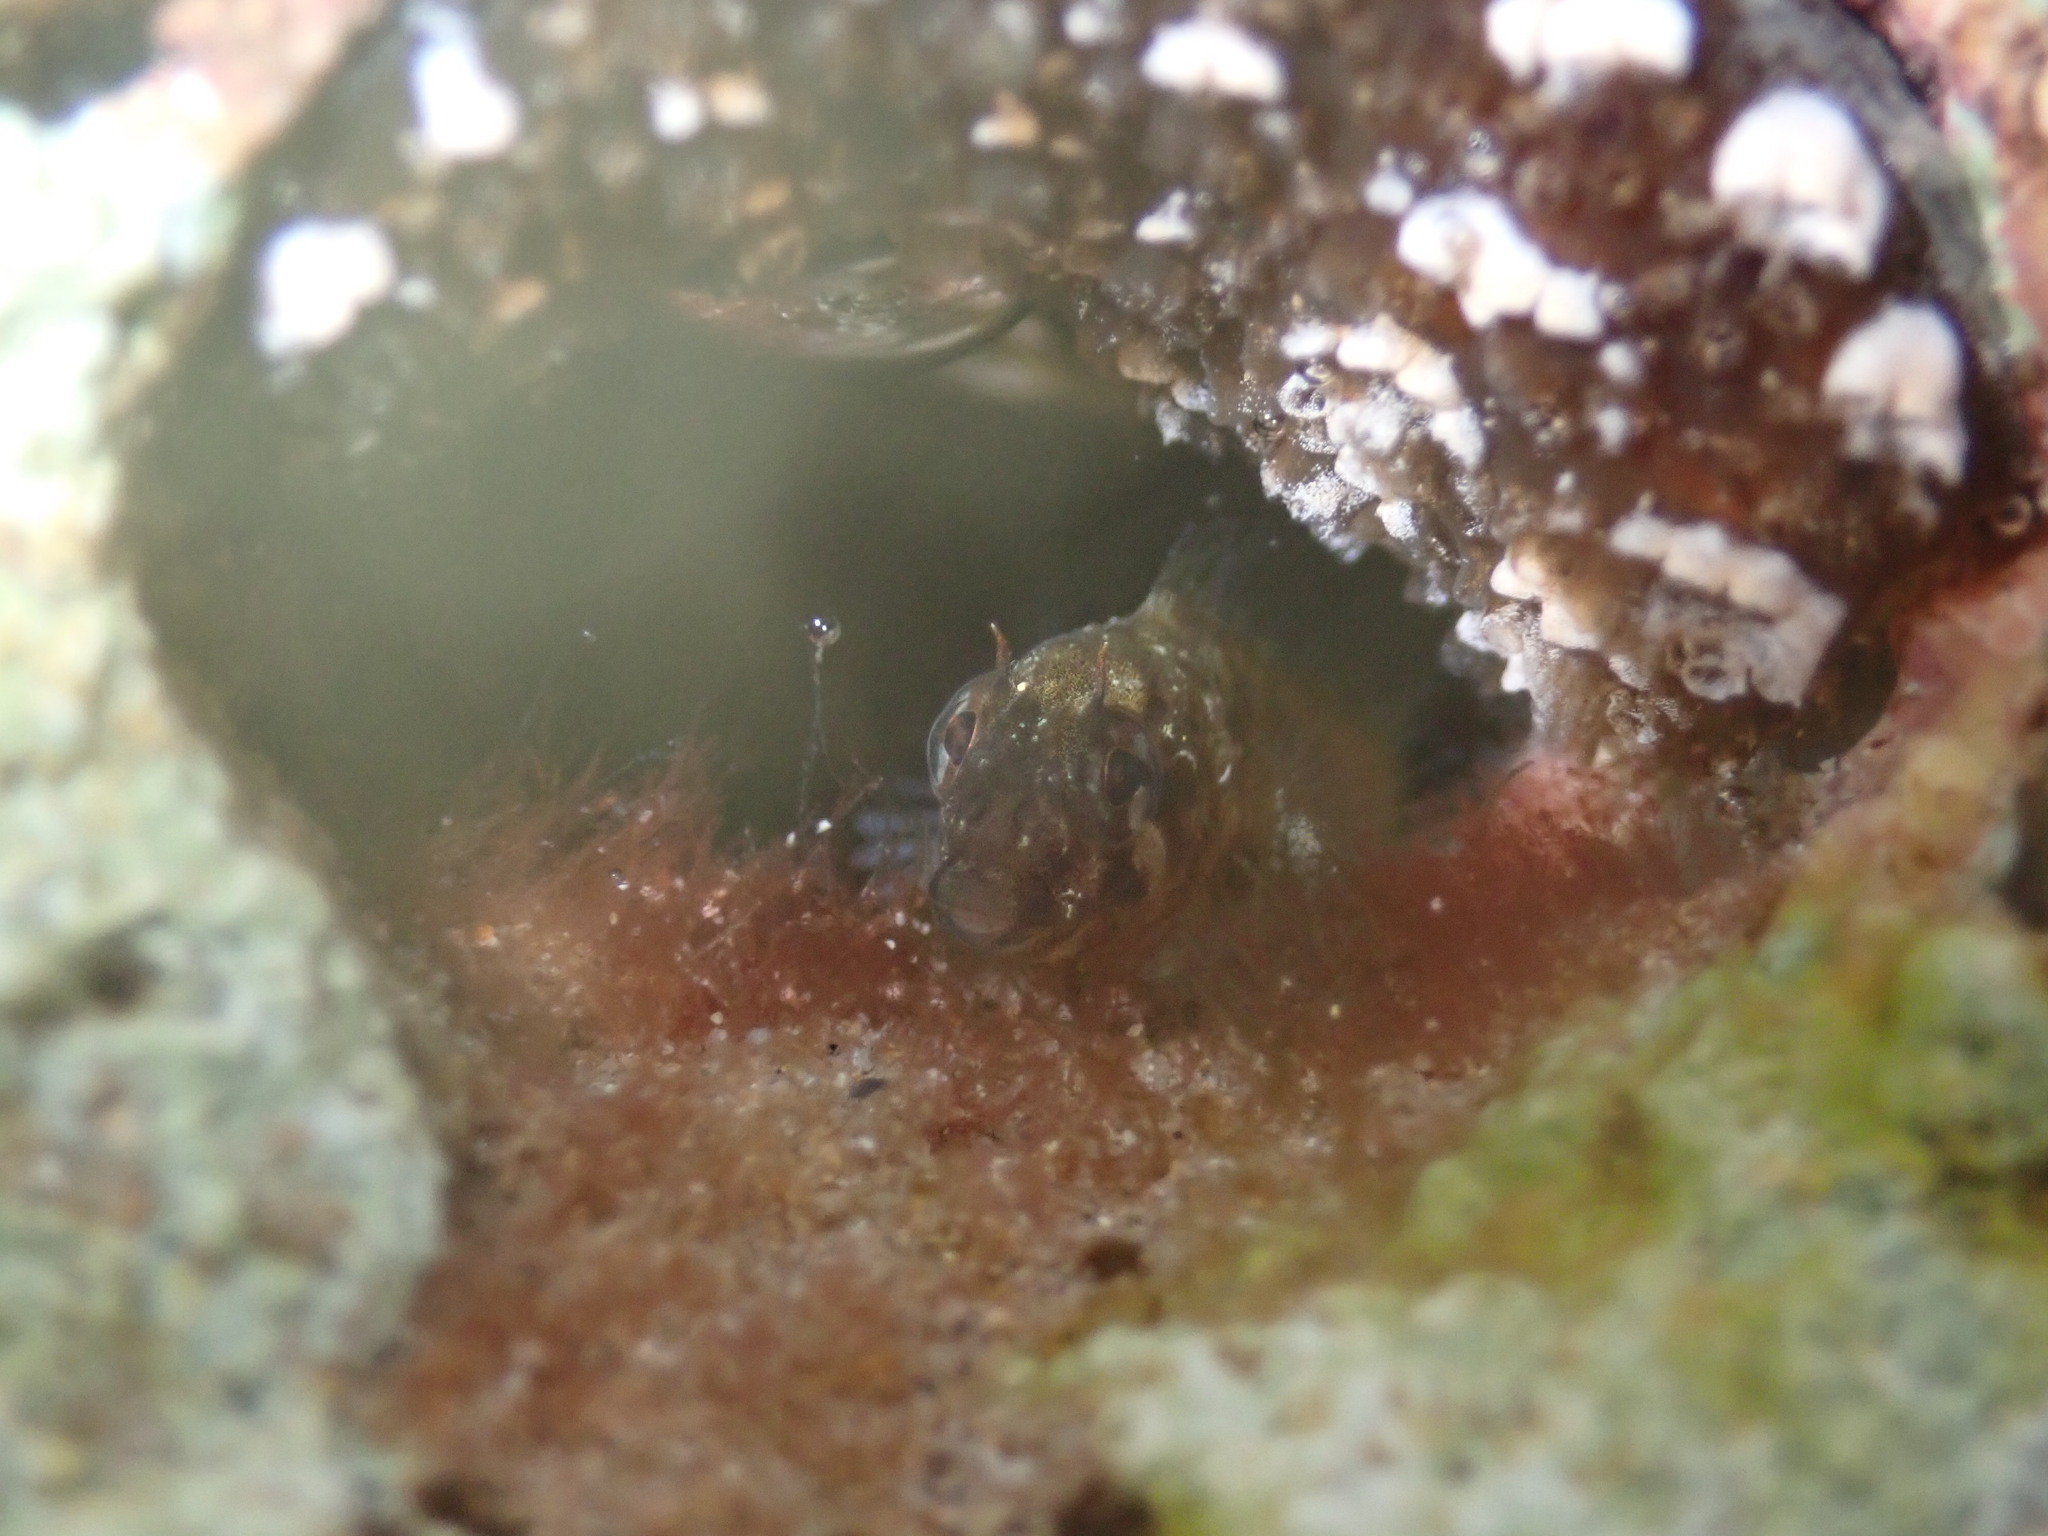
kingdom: Animalia
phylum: Chordata
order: Perciformes
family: Blenniidae
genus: Parablennius
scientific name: Parablennius tasmanianus
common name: Tasmanian blenny
